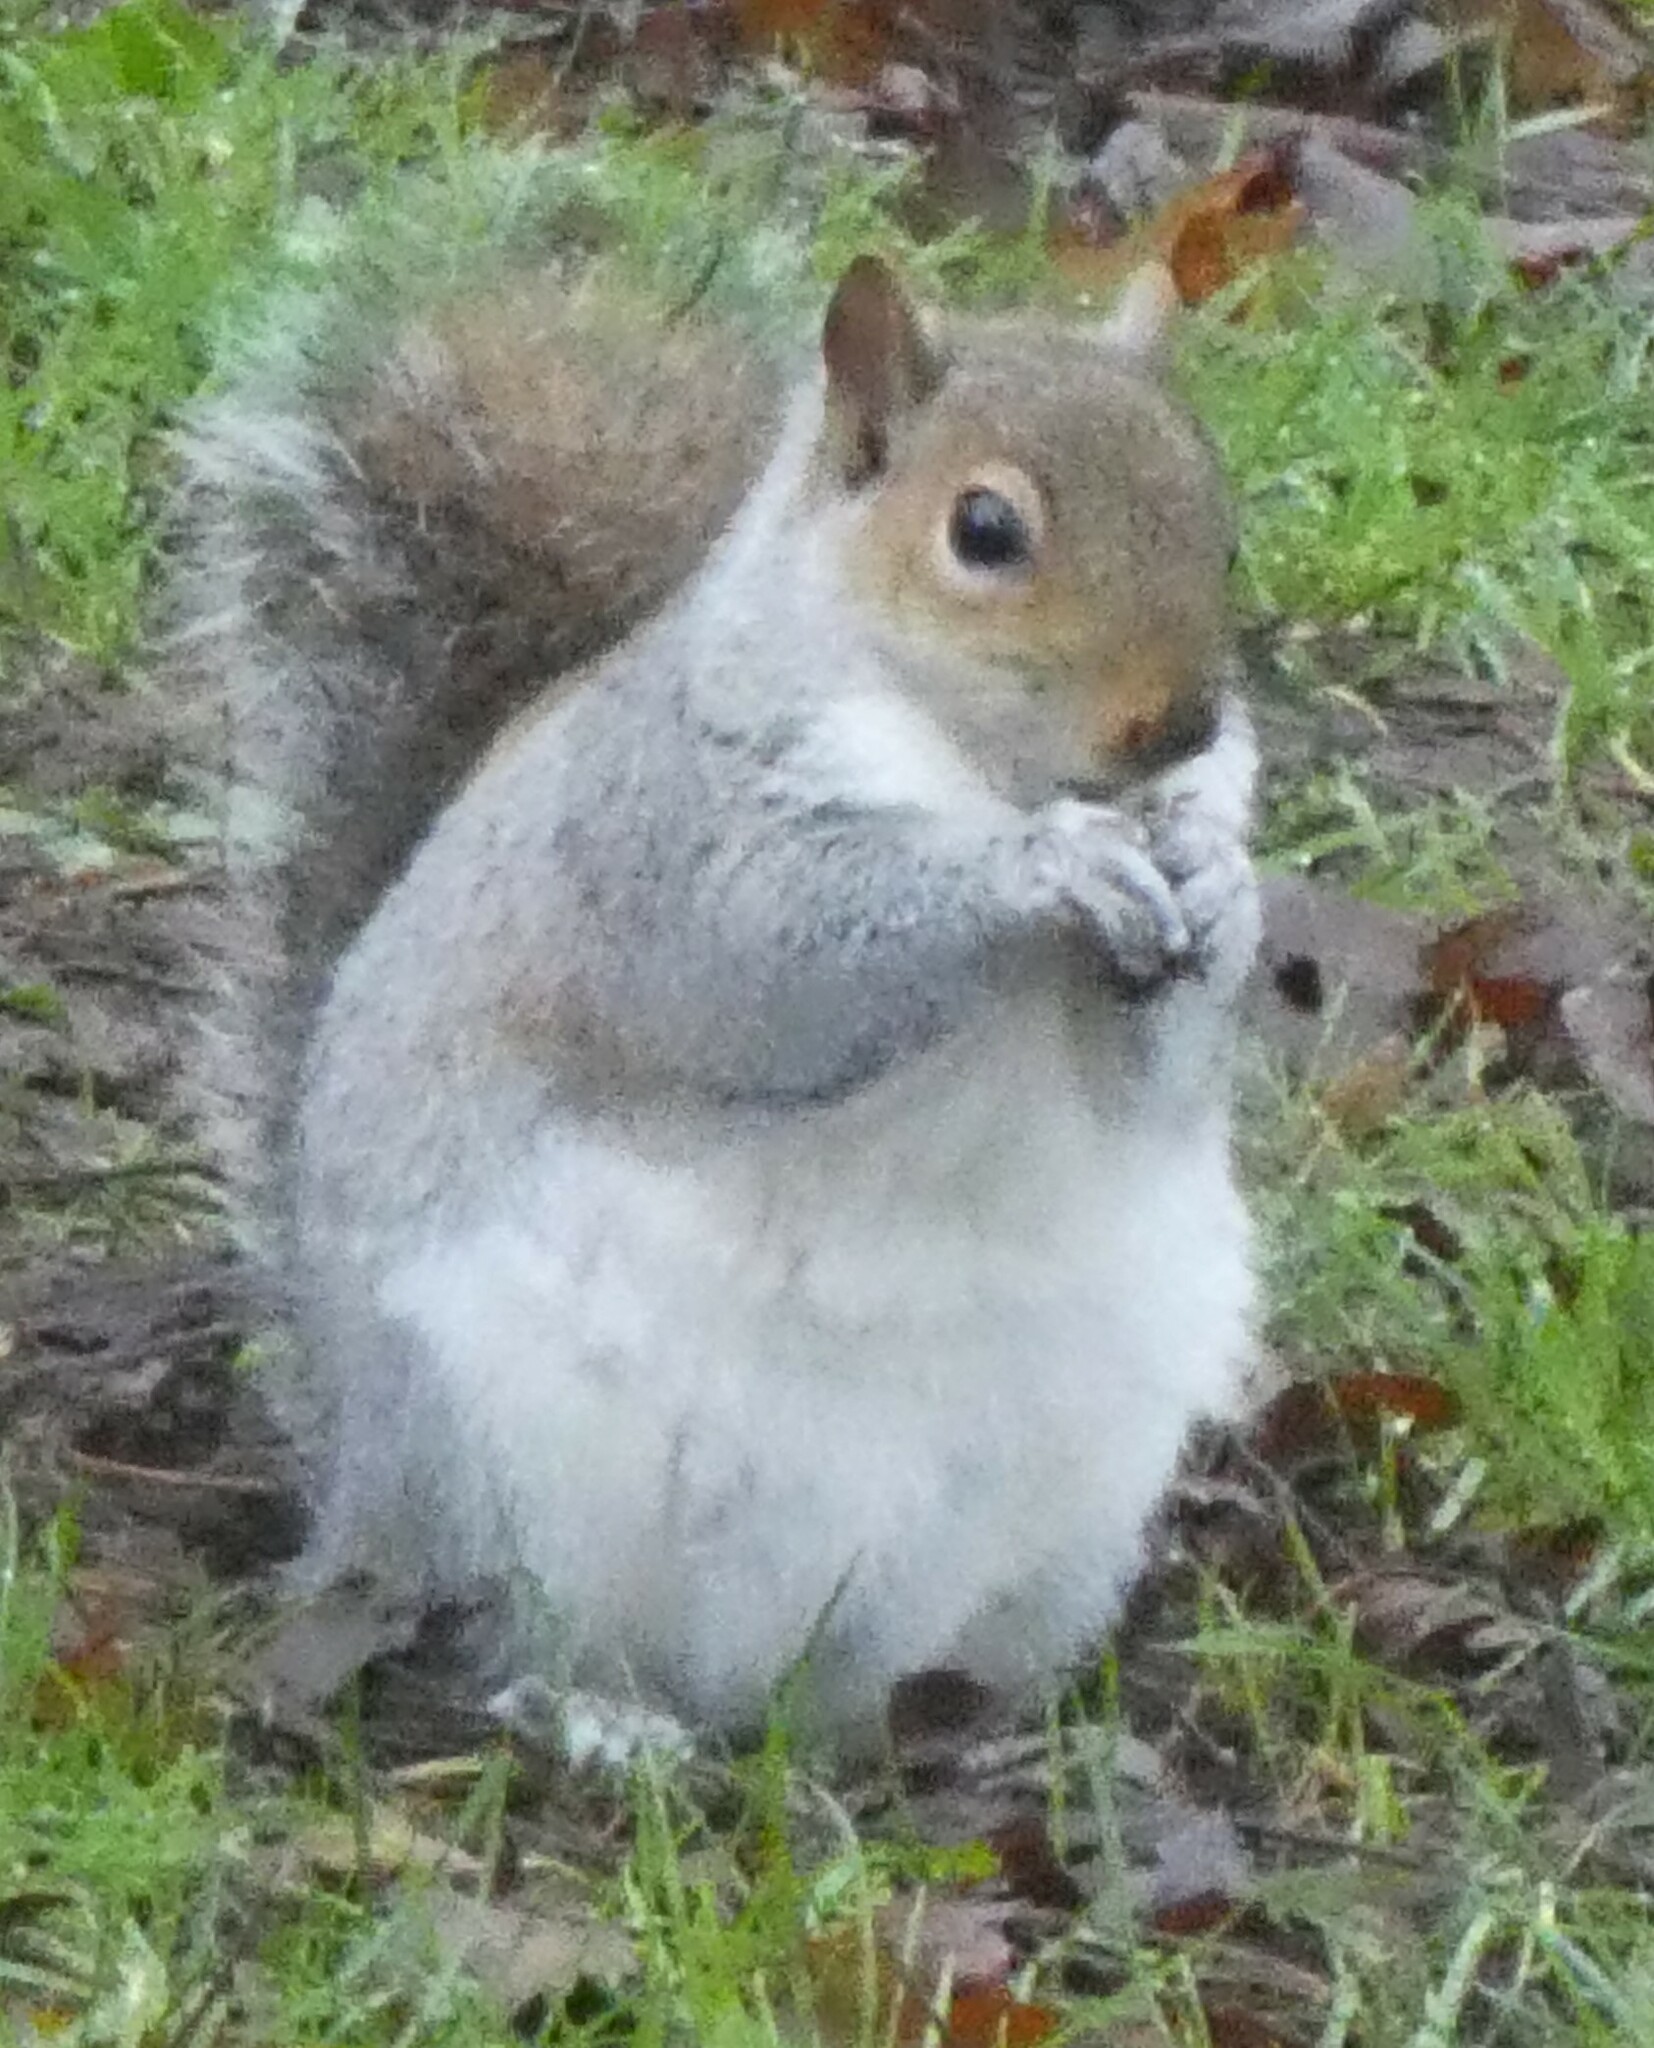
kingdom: Animalia
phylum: Chordata
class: Mammalia
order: Rodentia
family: Sciuridae
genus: Sciurus
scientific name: Sciurus carolinensis
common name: Eastern gray squirrel
